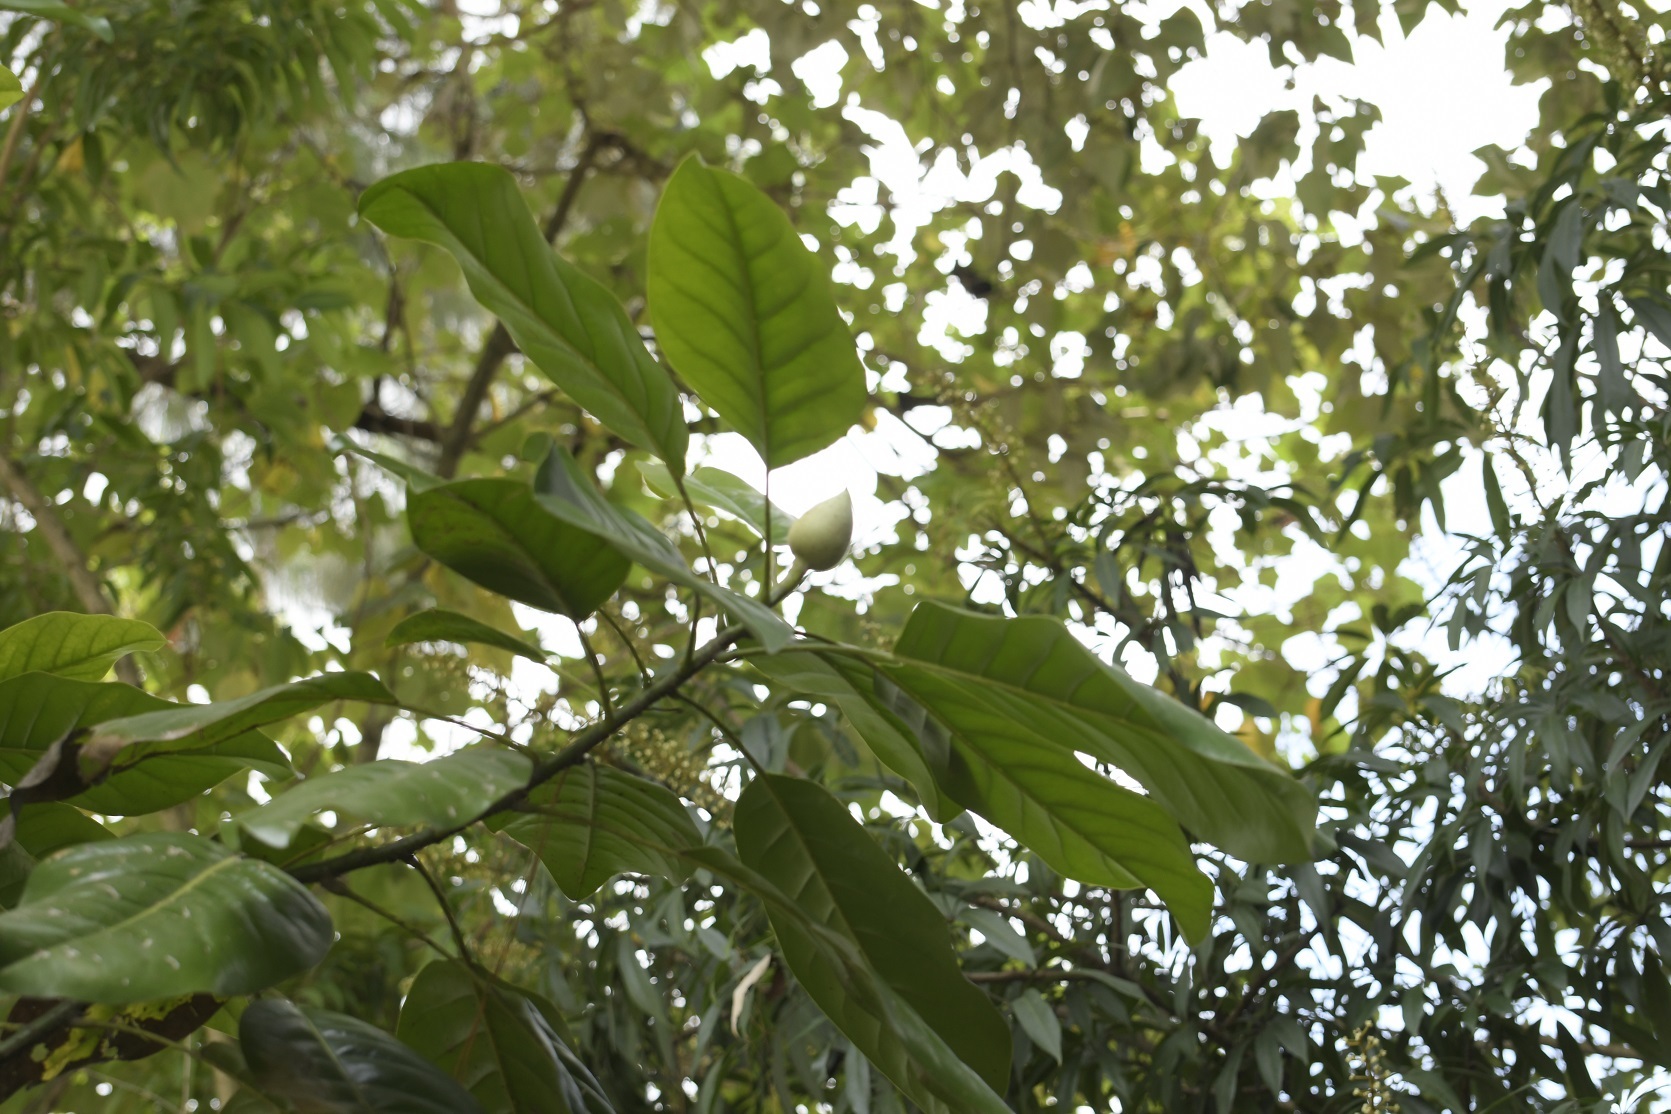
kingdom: Plantae
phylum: Tracheophyta
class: Magnoliopsida
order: Magnoliales
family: Magnoliaceae
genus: Magnolia
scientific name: Magnolia perezfarrerae
